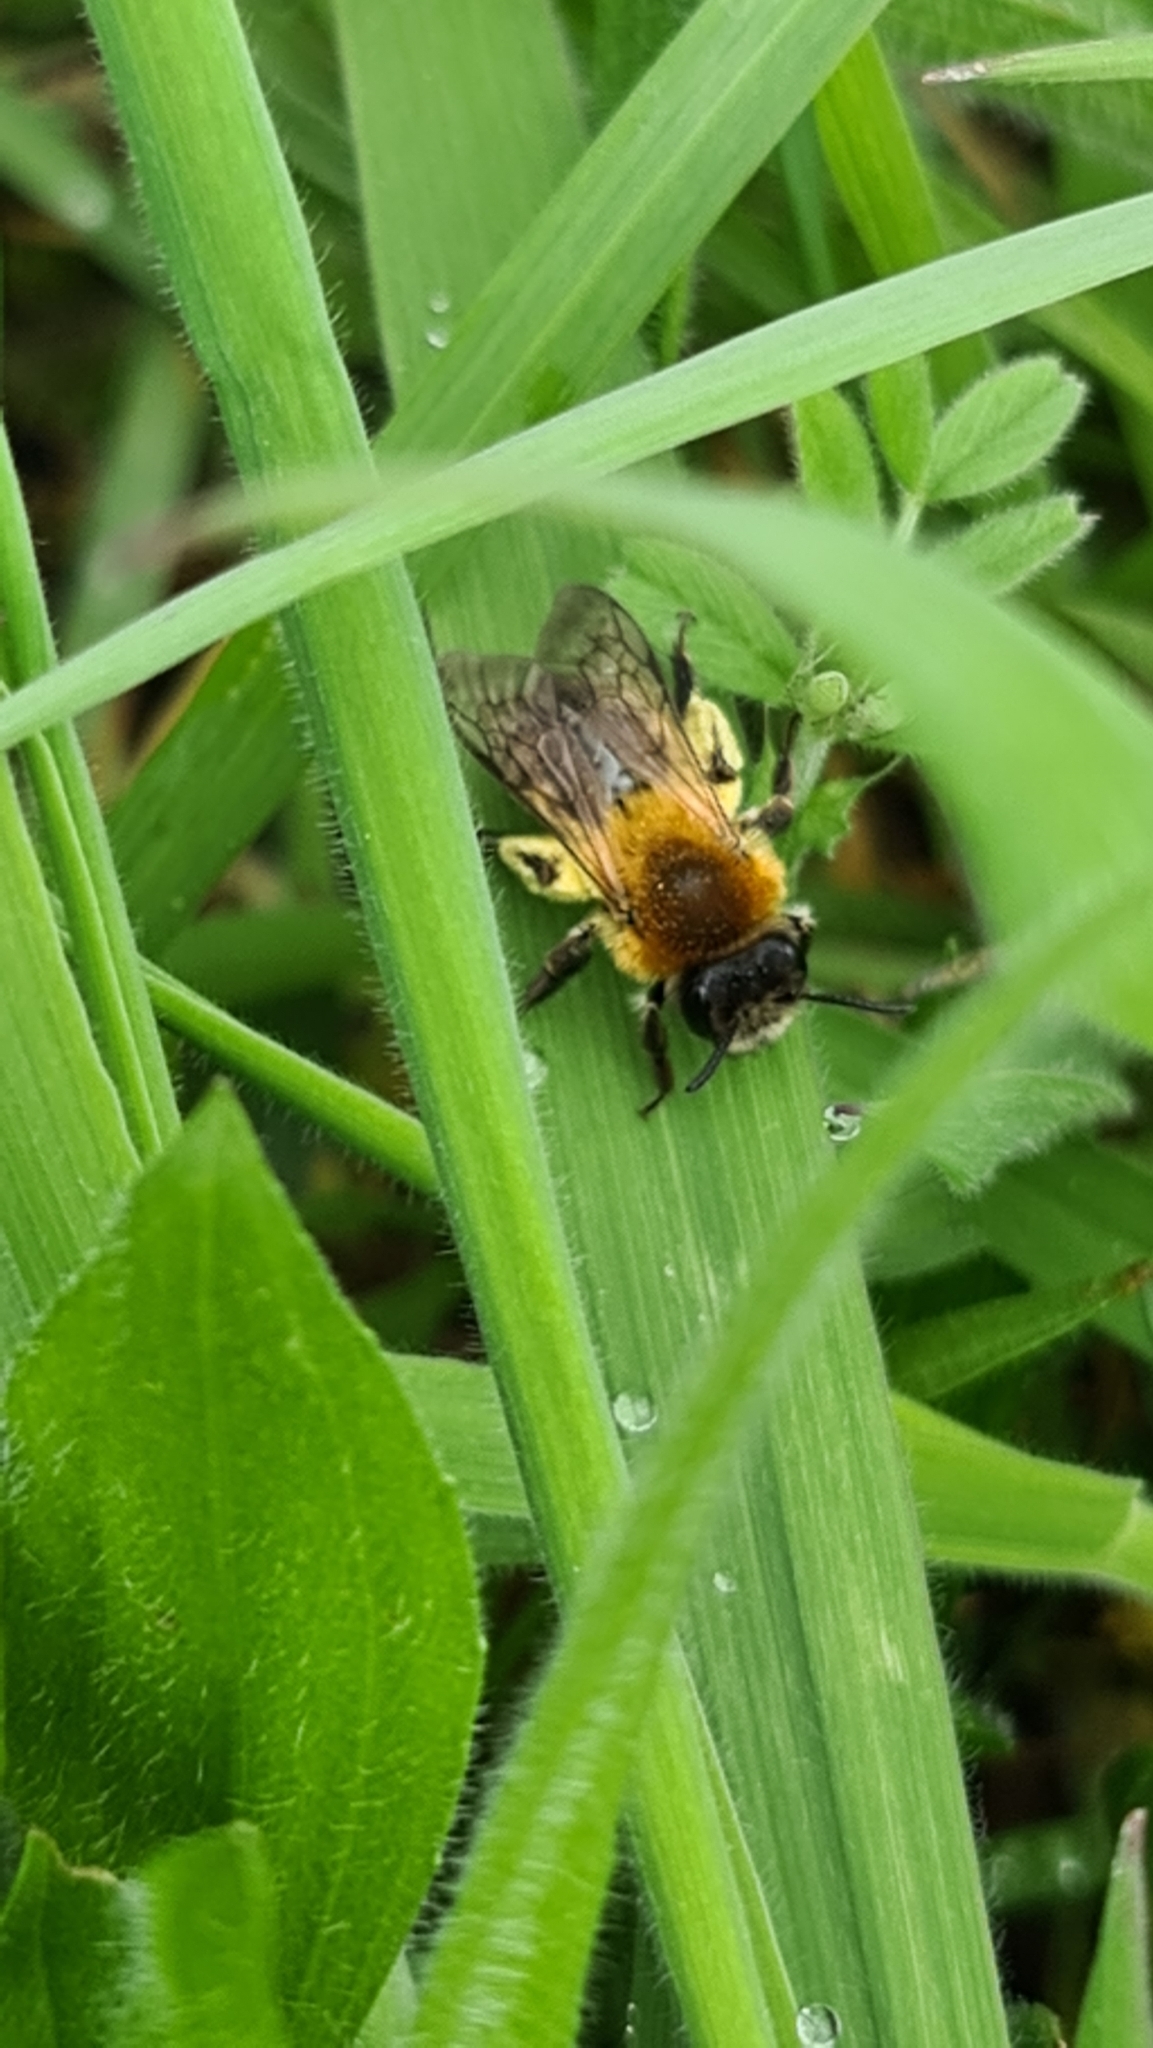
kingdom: Animalia
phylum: Arthropoda
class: Insecta
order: Hymenoptera
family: Andrenidae
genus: Andrena
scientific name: Andrena nitida
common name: Grey-patched mining bee
